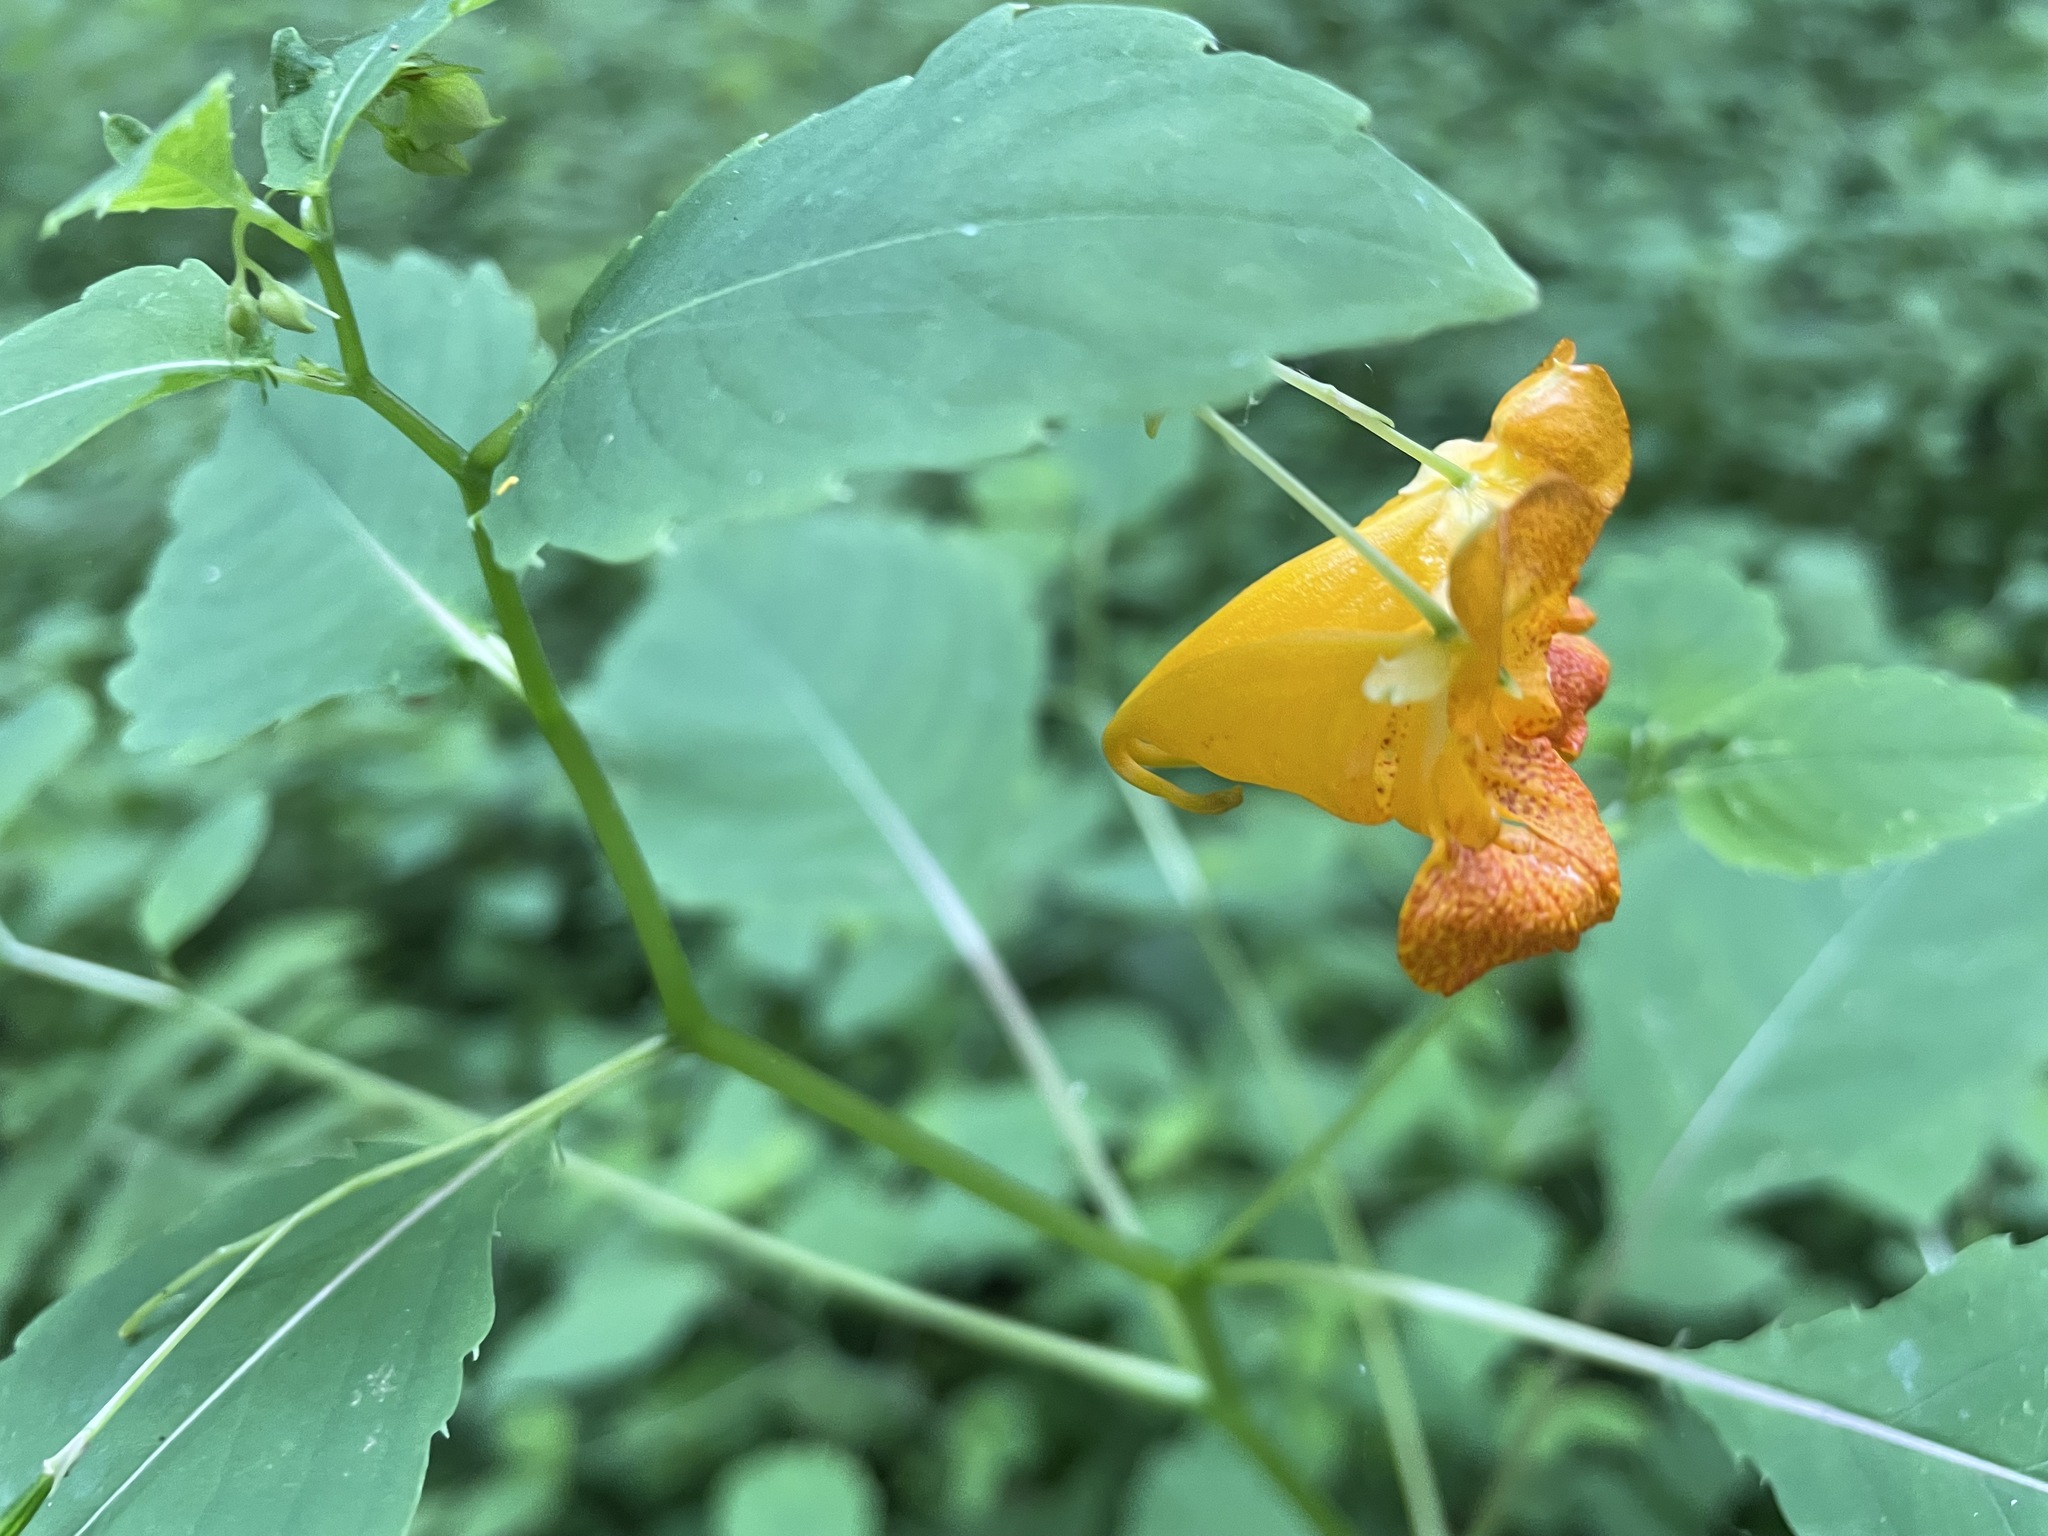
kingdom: Plantae
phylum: Tracheophyta
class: Magnoliopsida
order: Ericales
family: Balsaminaceae
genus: Impatiens
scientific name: Impatiens capensis
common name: Orange balsam
